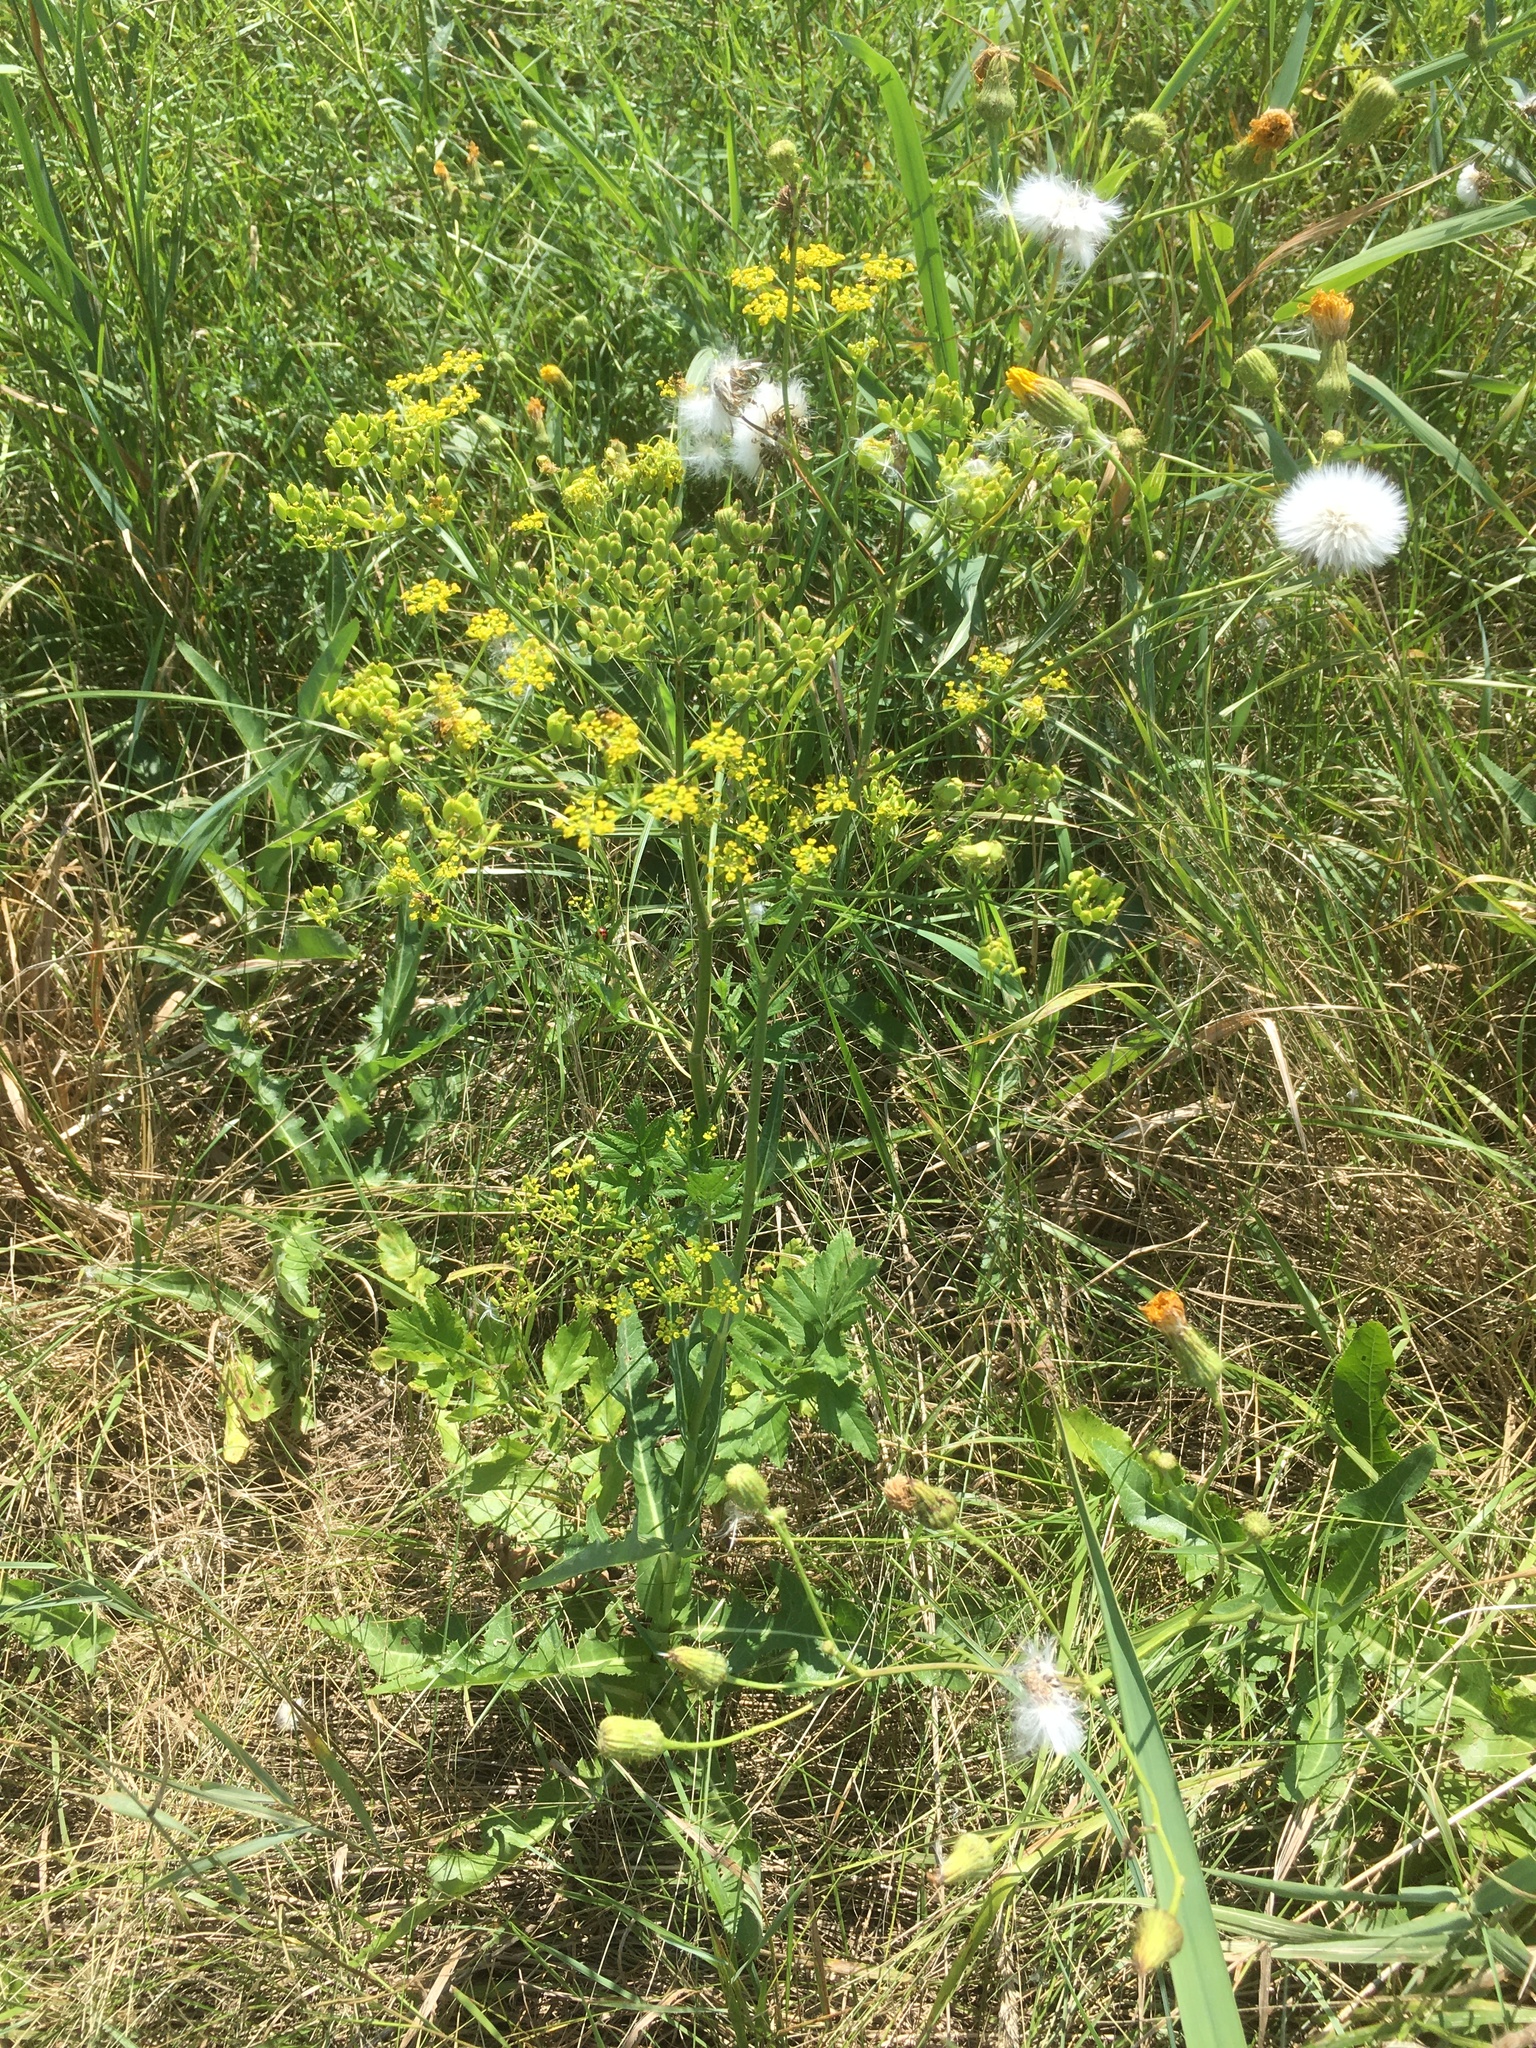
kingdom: Plantae
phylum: Tracheophyta
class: Magnoliopsida
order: Asterales
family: Asteraceae
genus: Sonchus
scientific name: Sonchus arvensis
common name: Perennial sow-thistle
